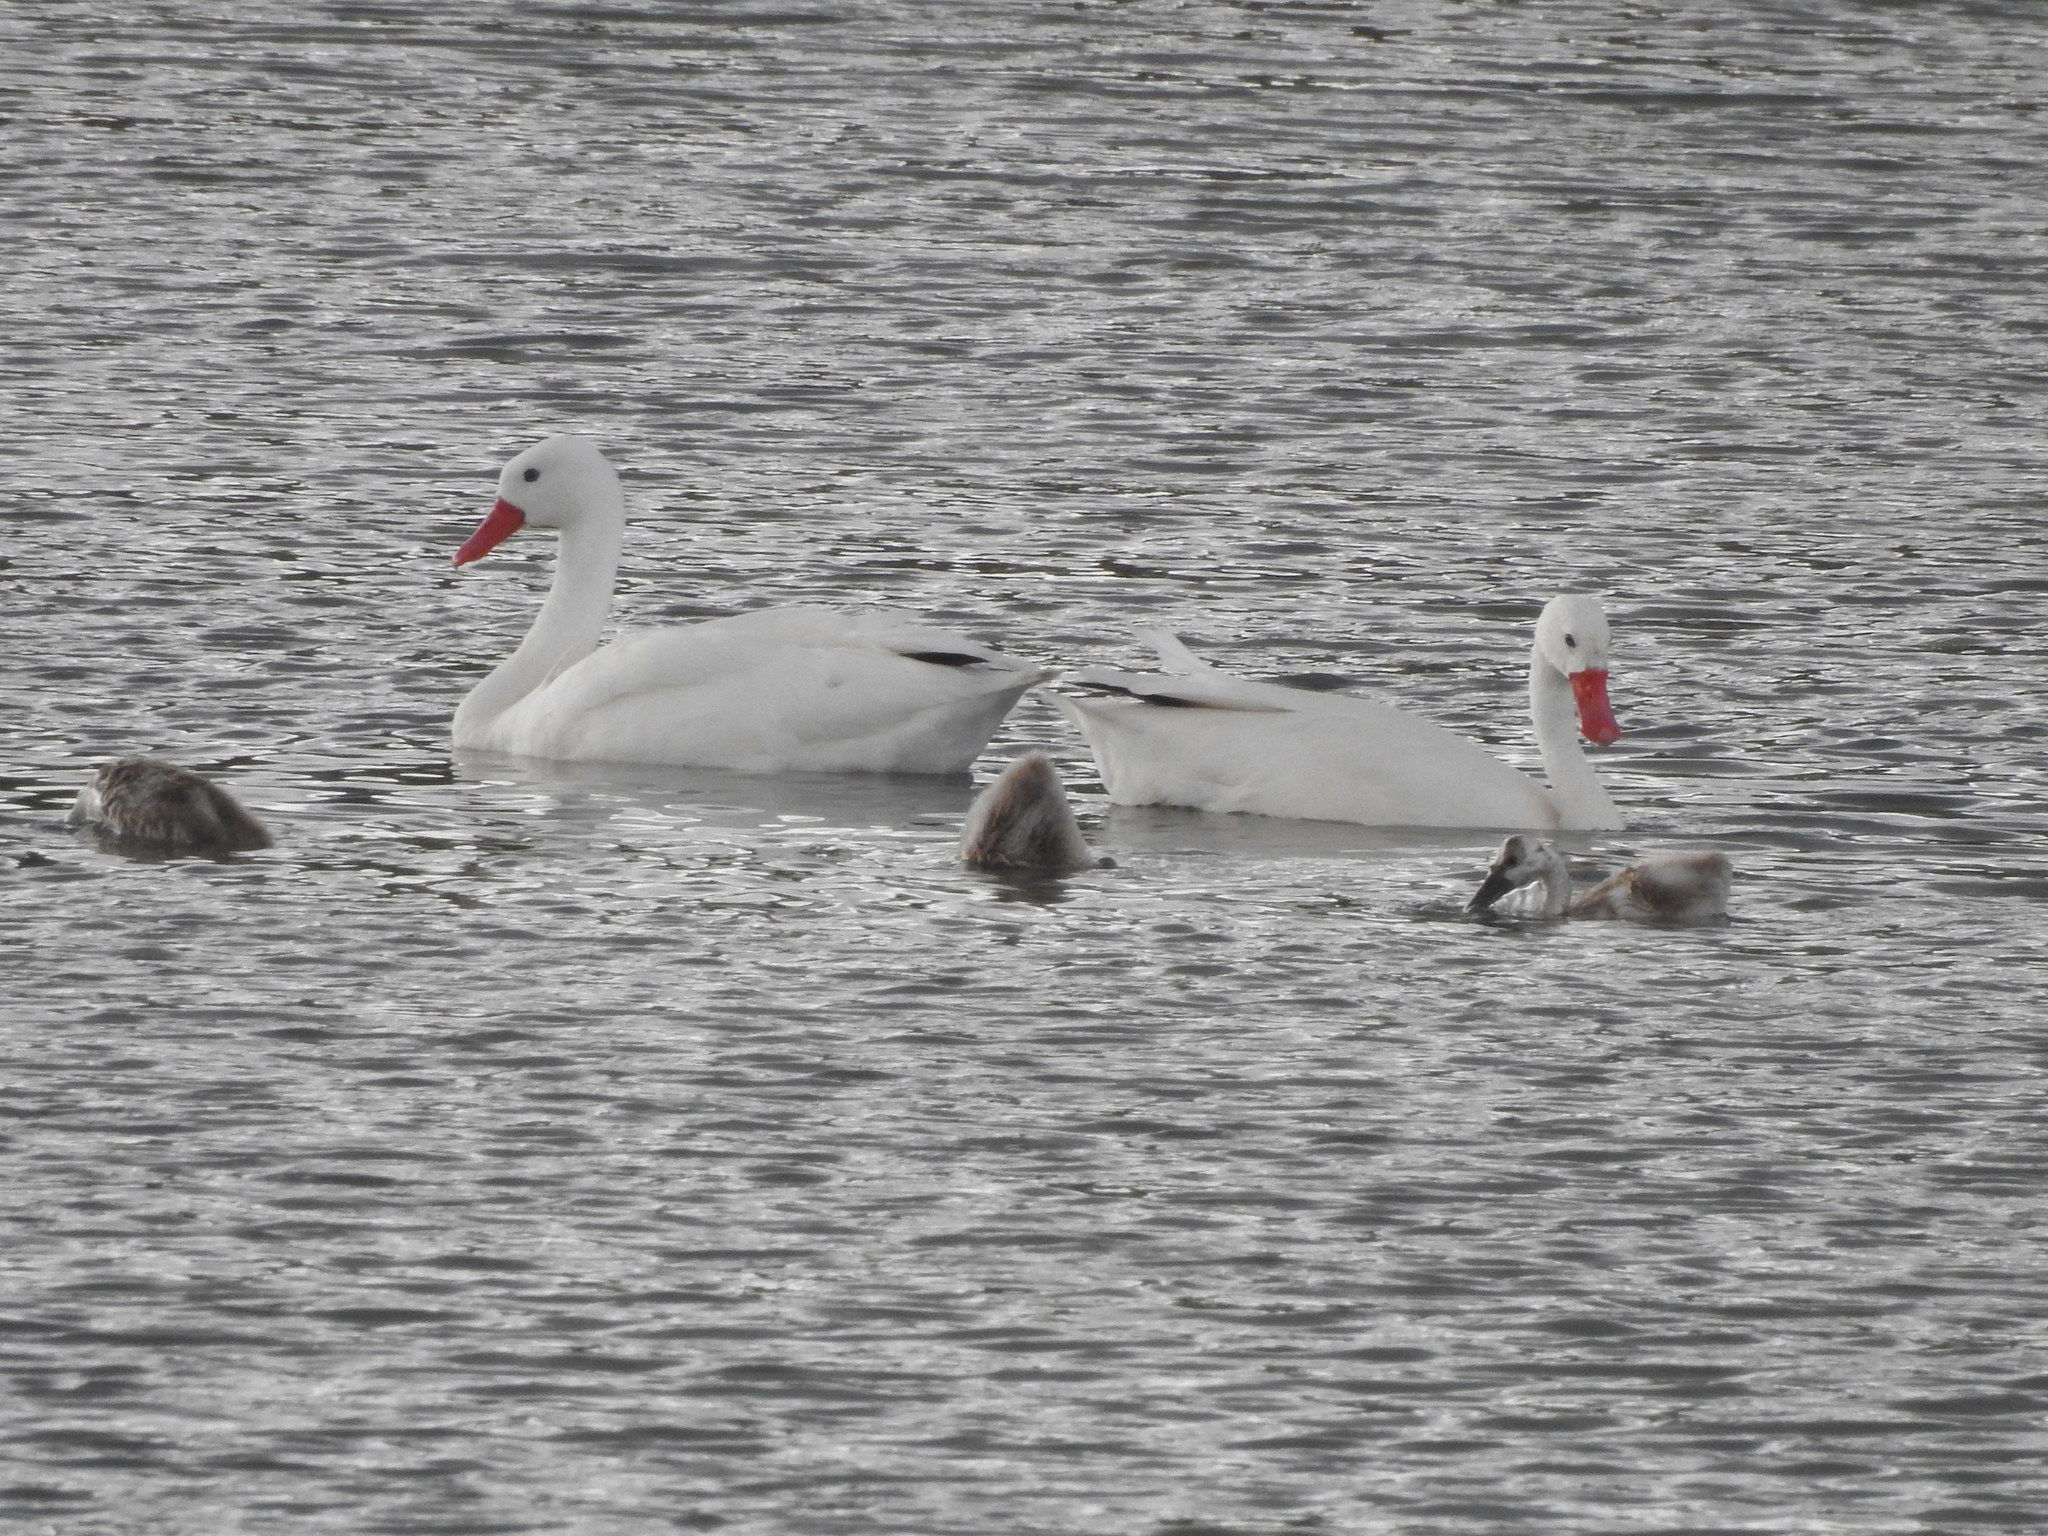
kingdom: Animalia
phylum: Chordata
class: Aves
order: Anseriformes
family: Anatidae
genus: Coscoroba
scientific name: Coscoroba coscoroba
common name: Coscoroba swan
